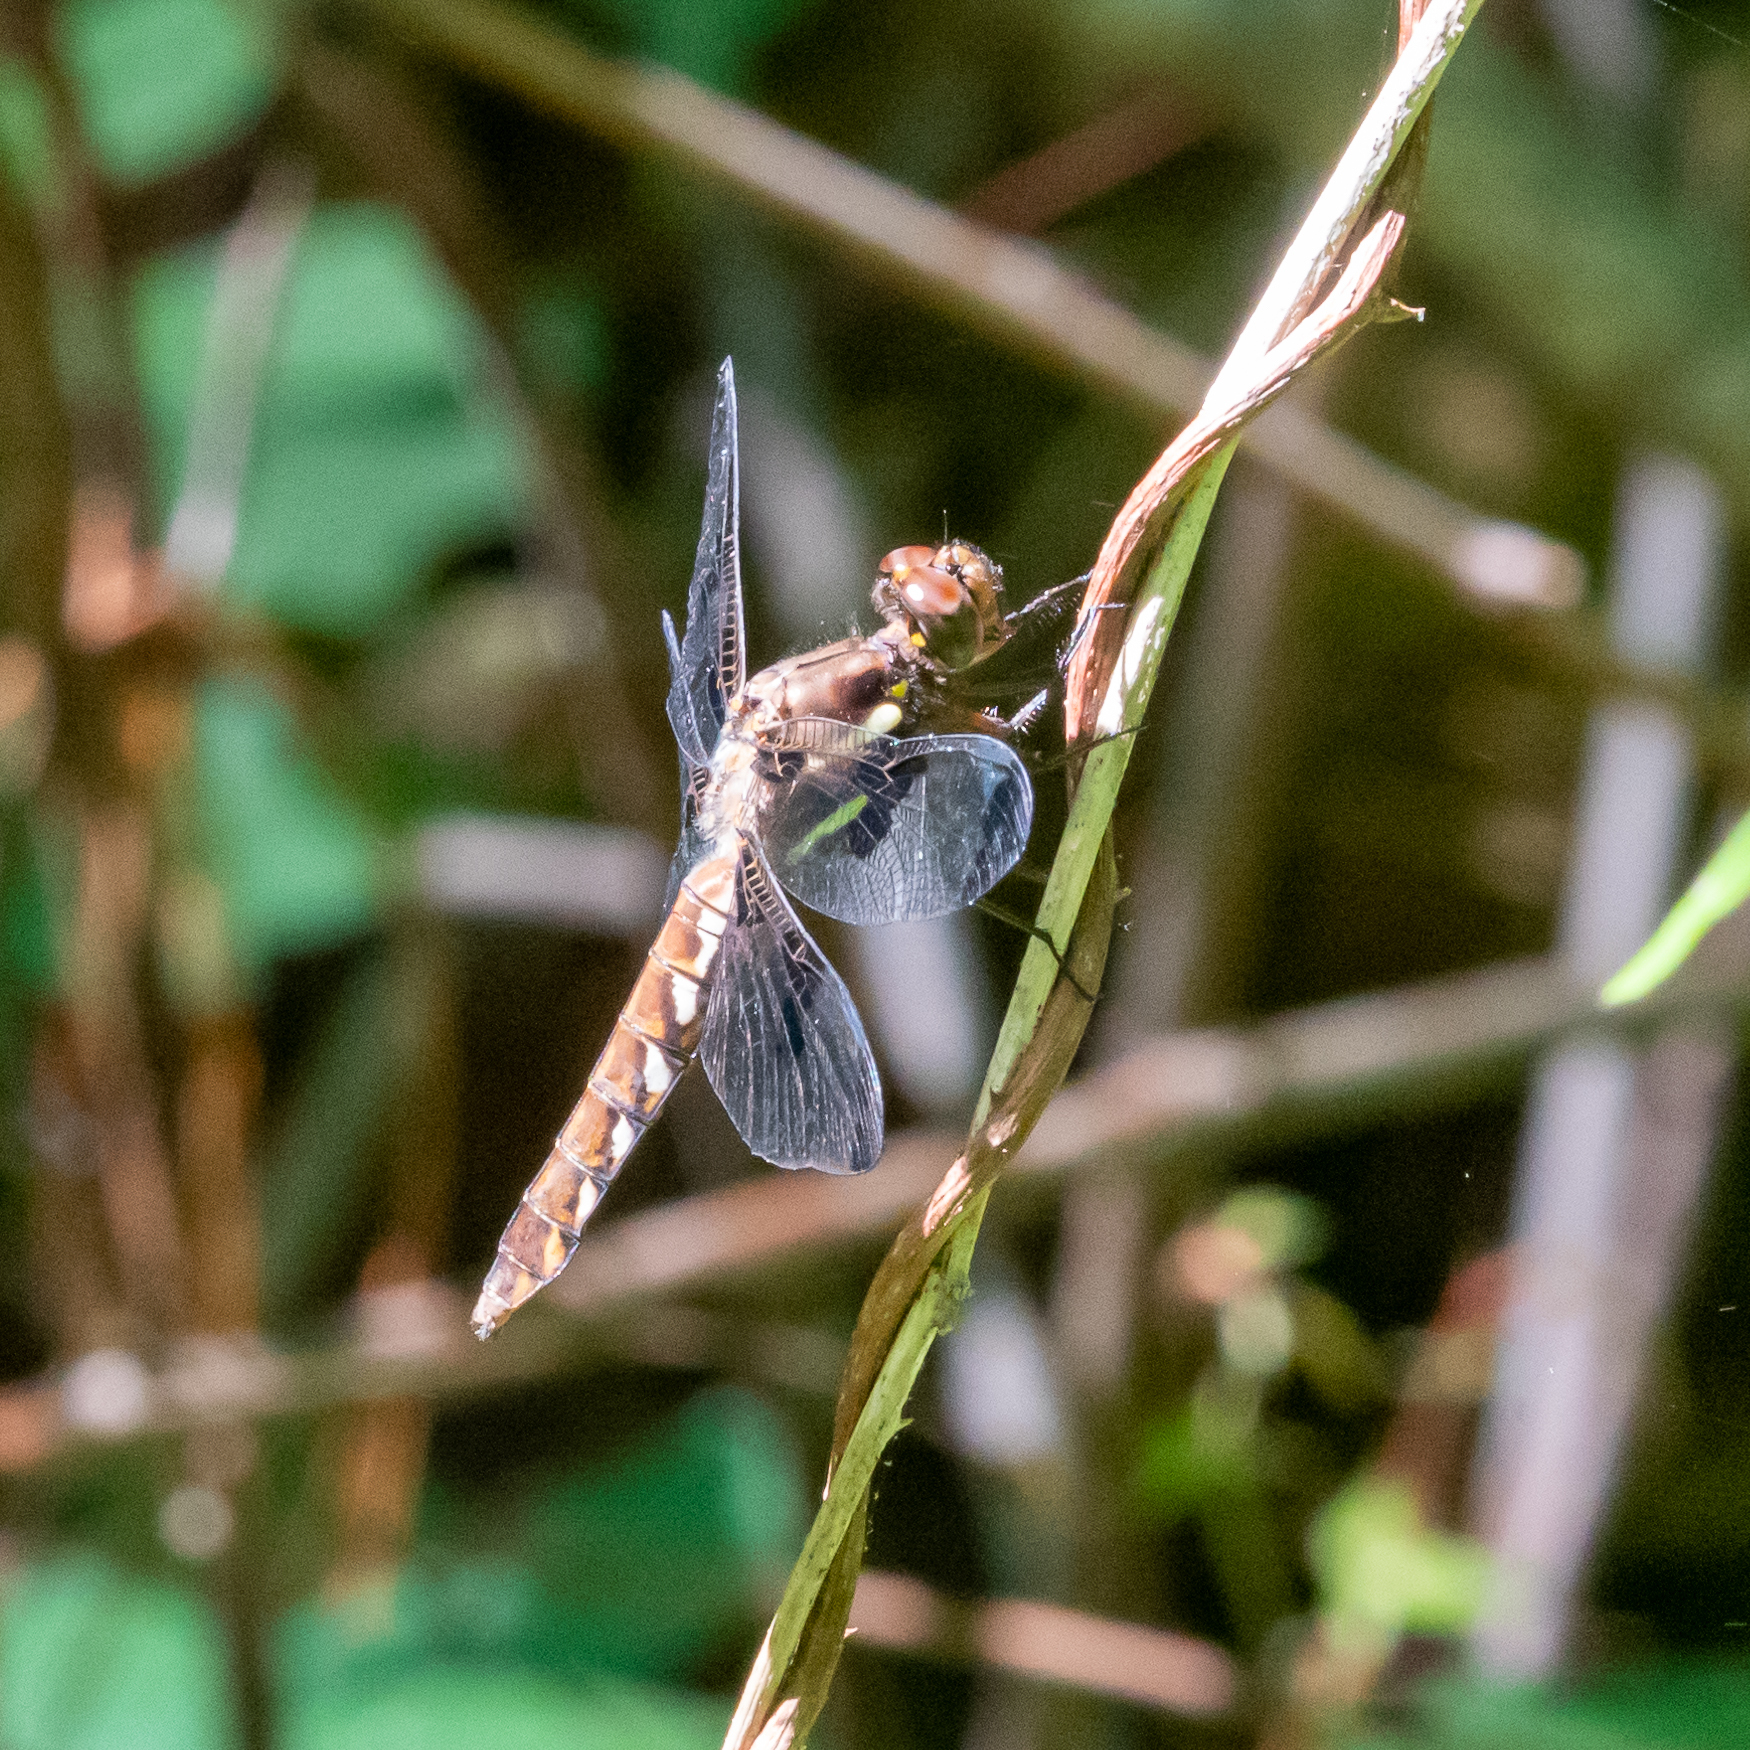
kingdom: Animalia
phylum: Arthropoda
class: Insecta
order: Odonata
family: Libellulidae
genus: Plathemis
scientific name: Plathemis lydia
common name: Common whitetail
